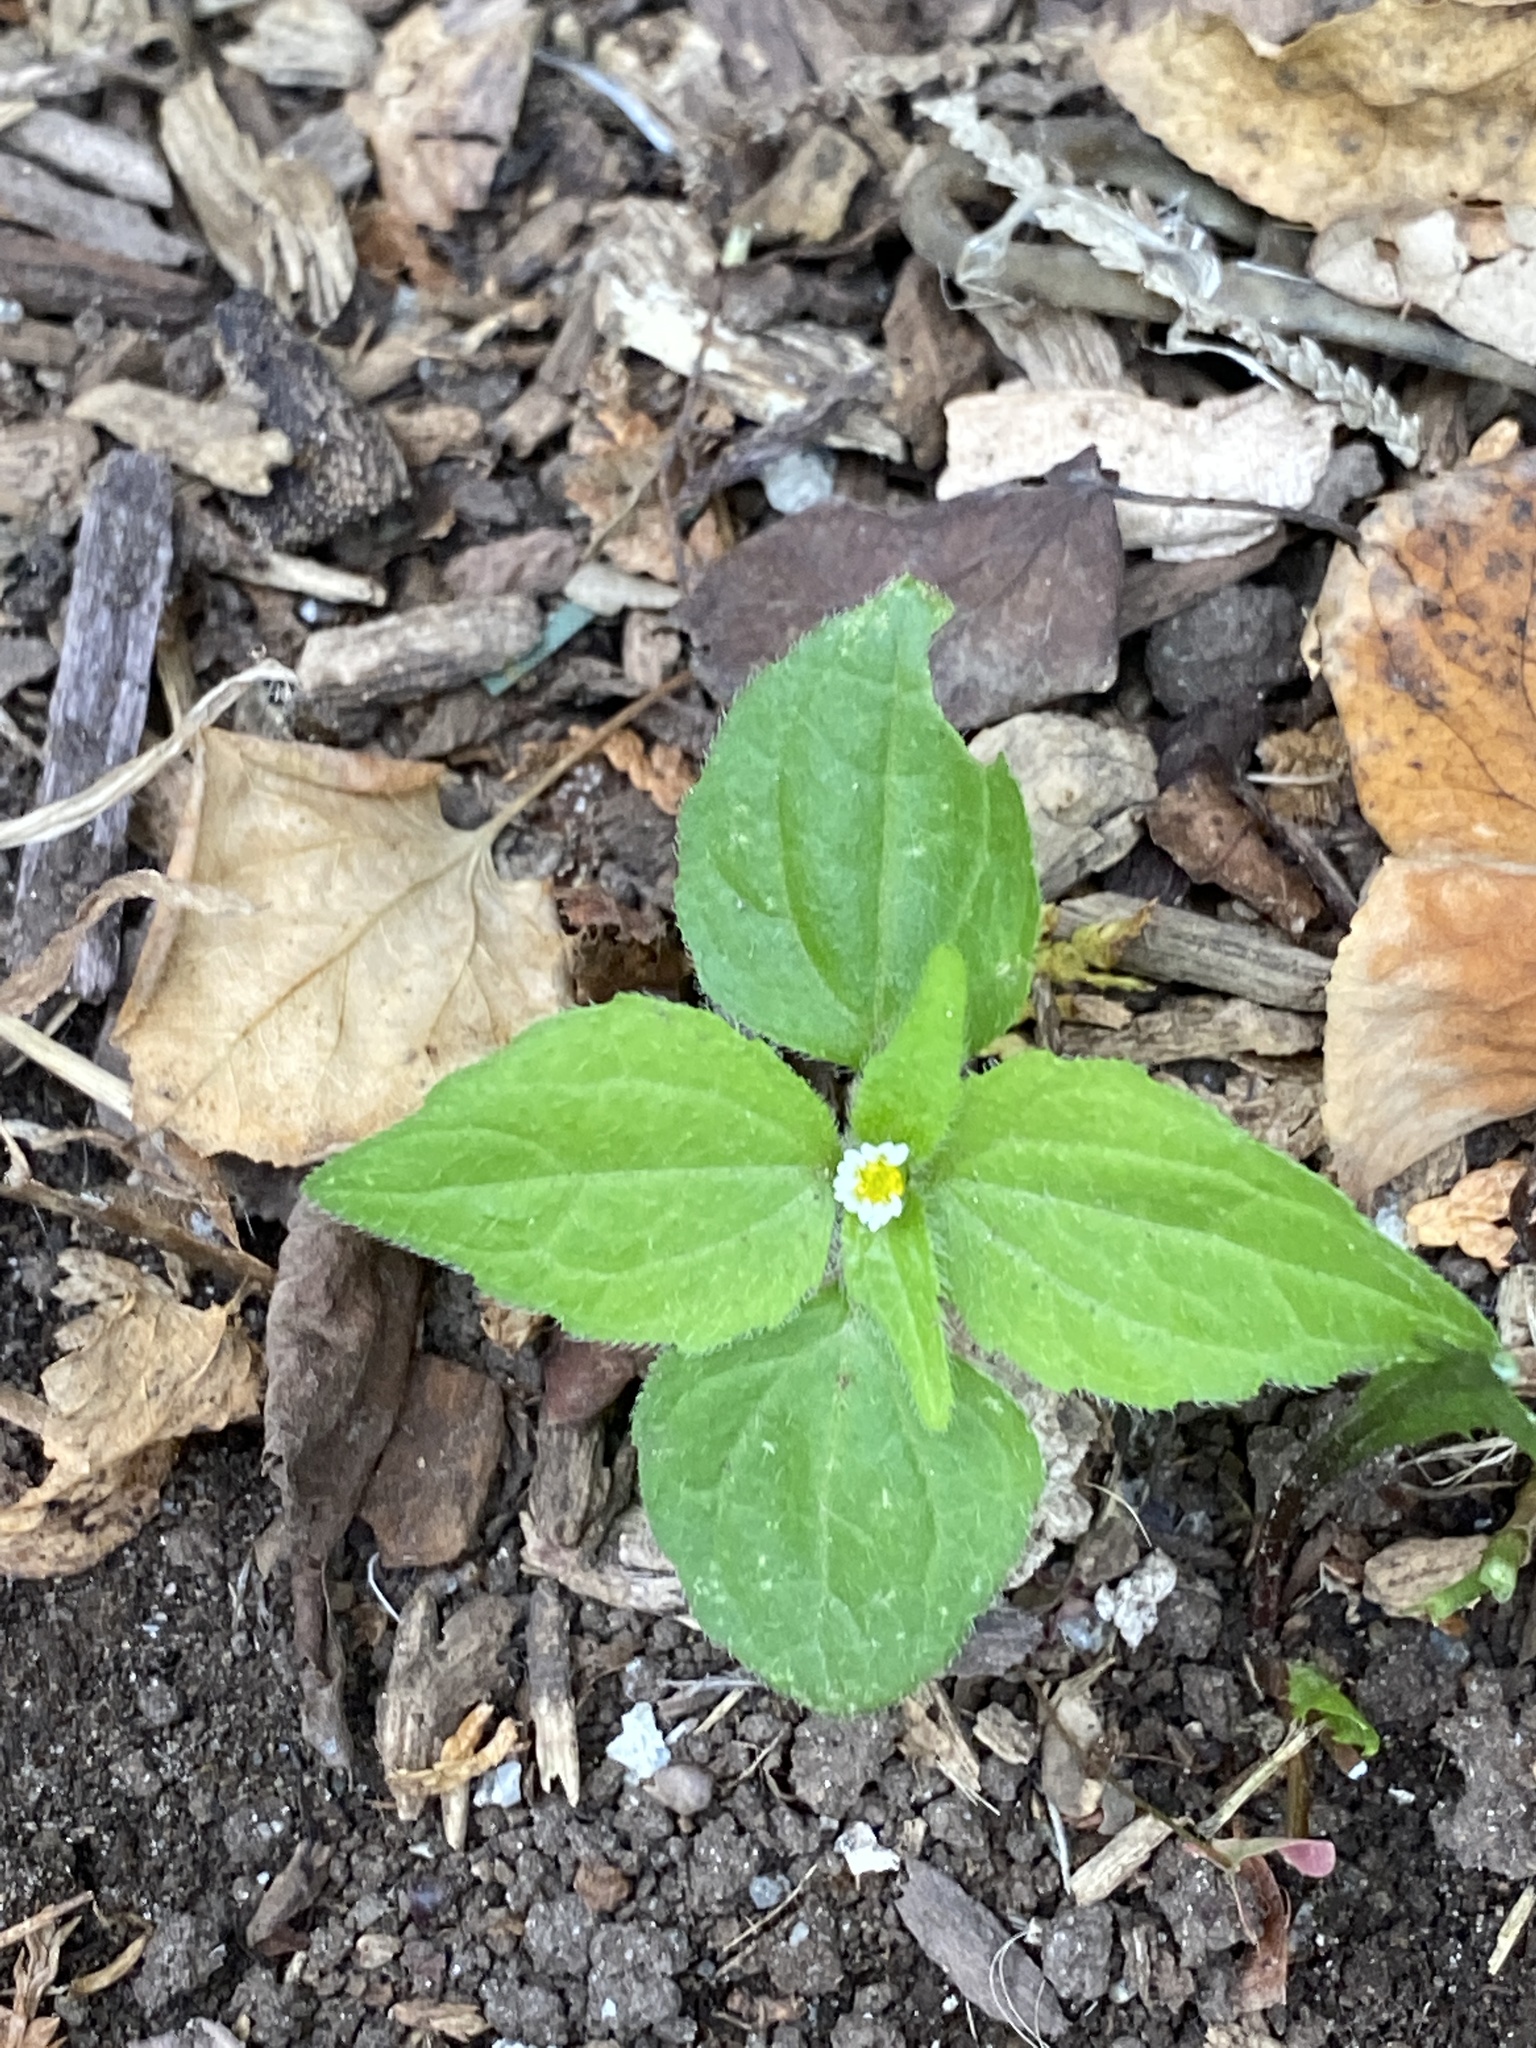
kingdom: Plantae
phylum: Tracheophyta
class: Magnoliopsida
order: Asterales
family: Asteraceae
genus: Galinsoga
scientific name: Galinsoga quadriradiata
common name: Shaggy soldier
